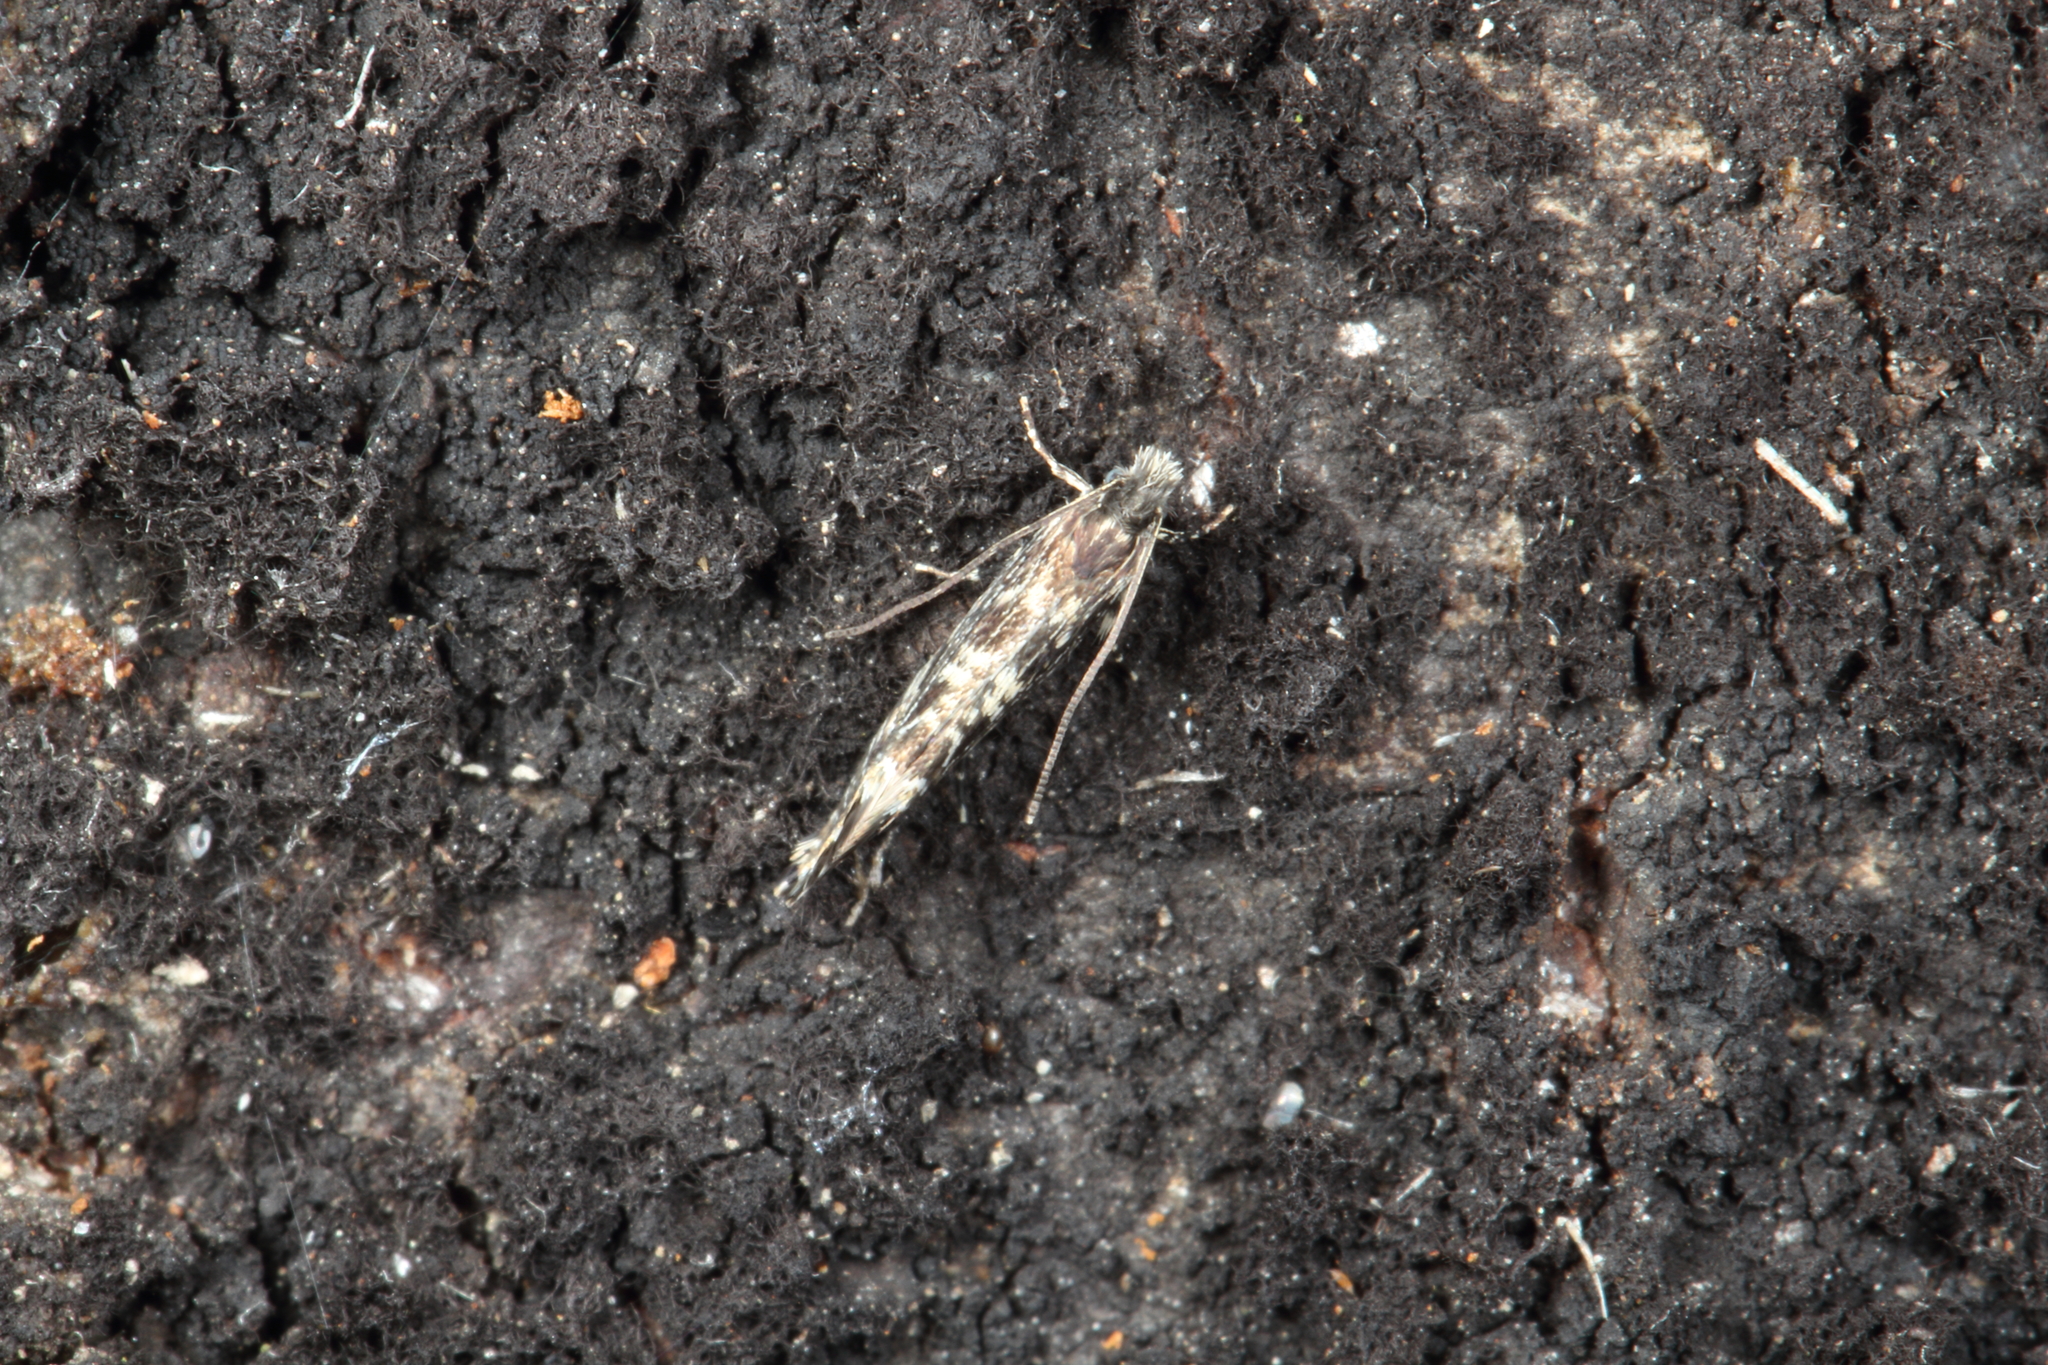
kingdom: Animalia
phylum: Arthropoda
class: Insecta
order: Lepidoptera
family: Tineidae
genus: Tinea
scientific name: Tinea astraea
